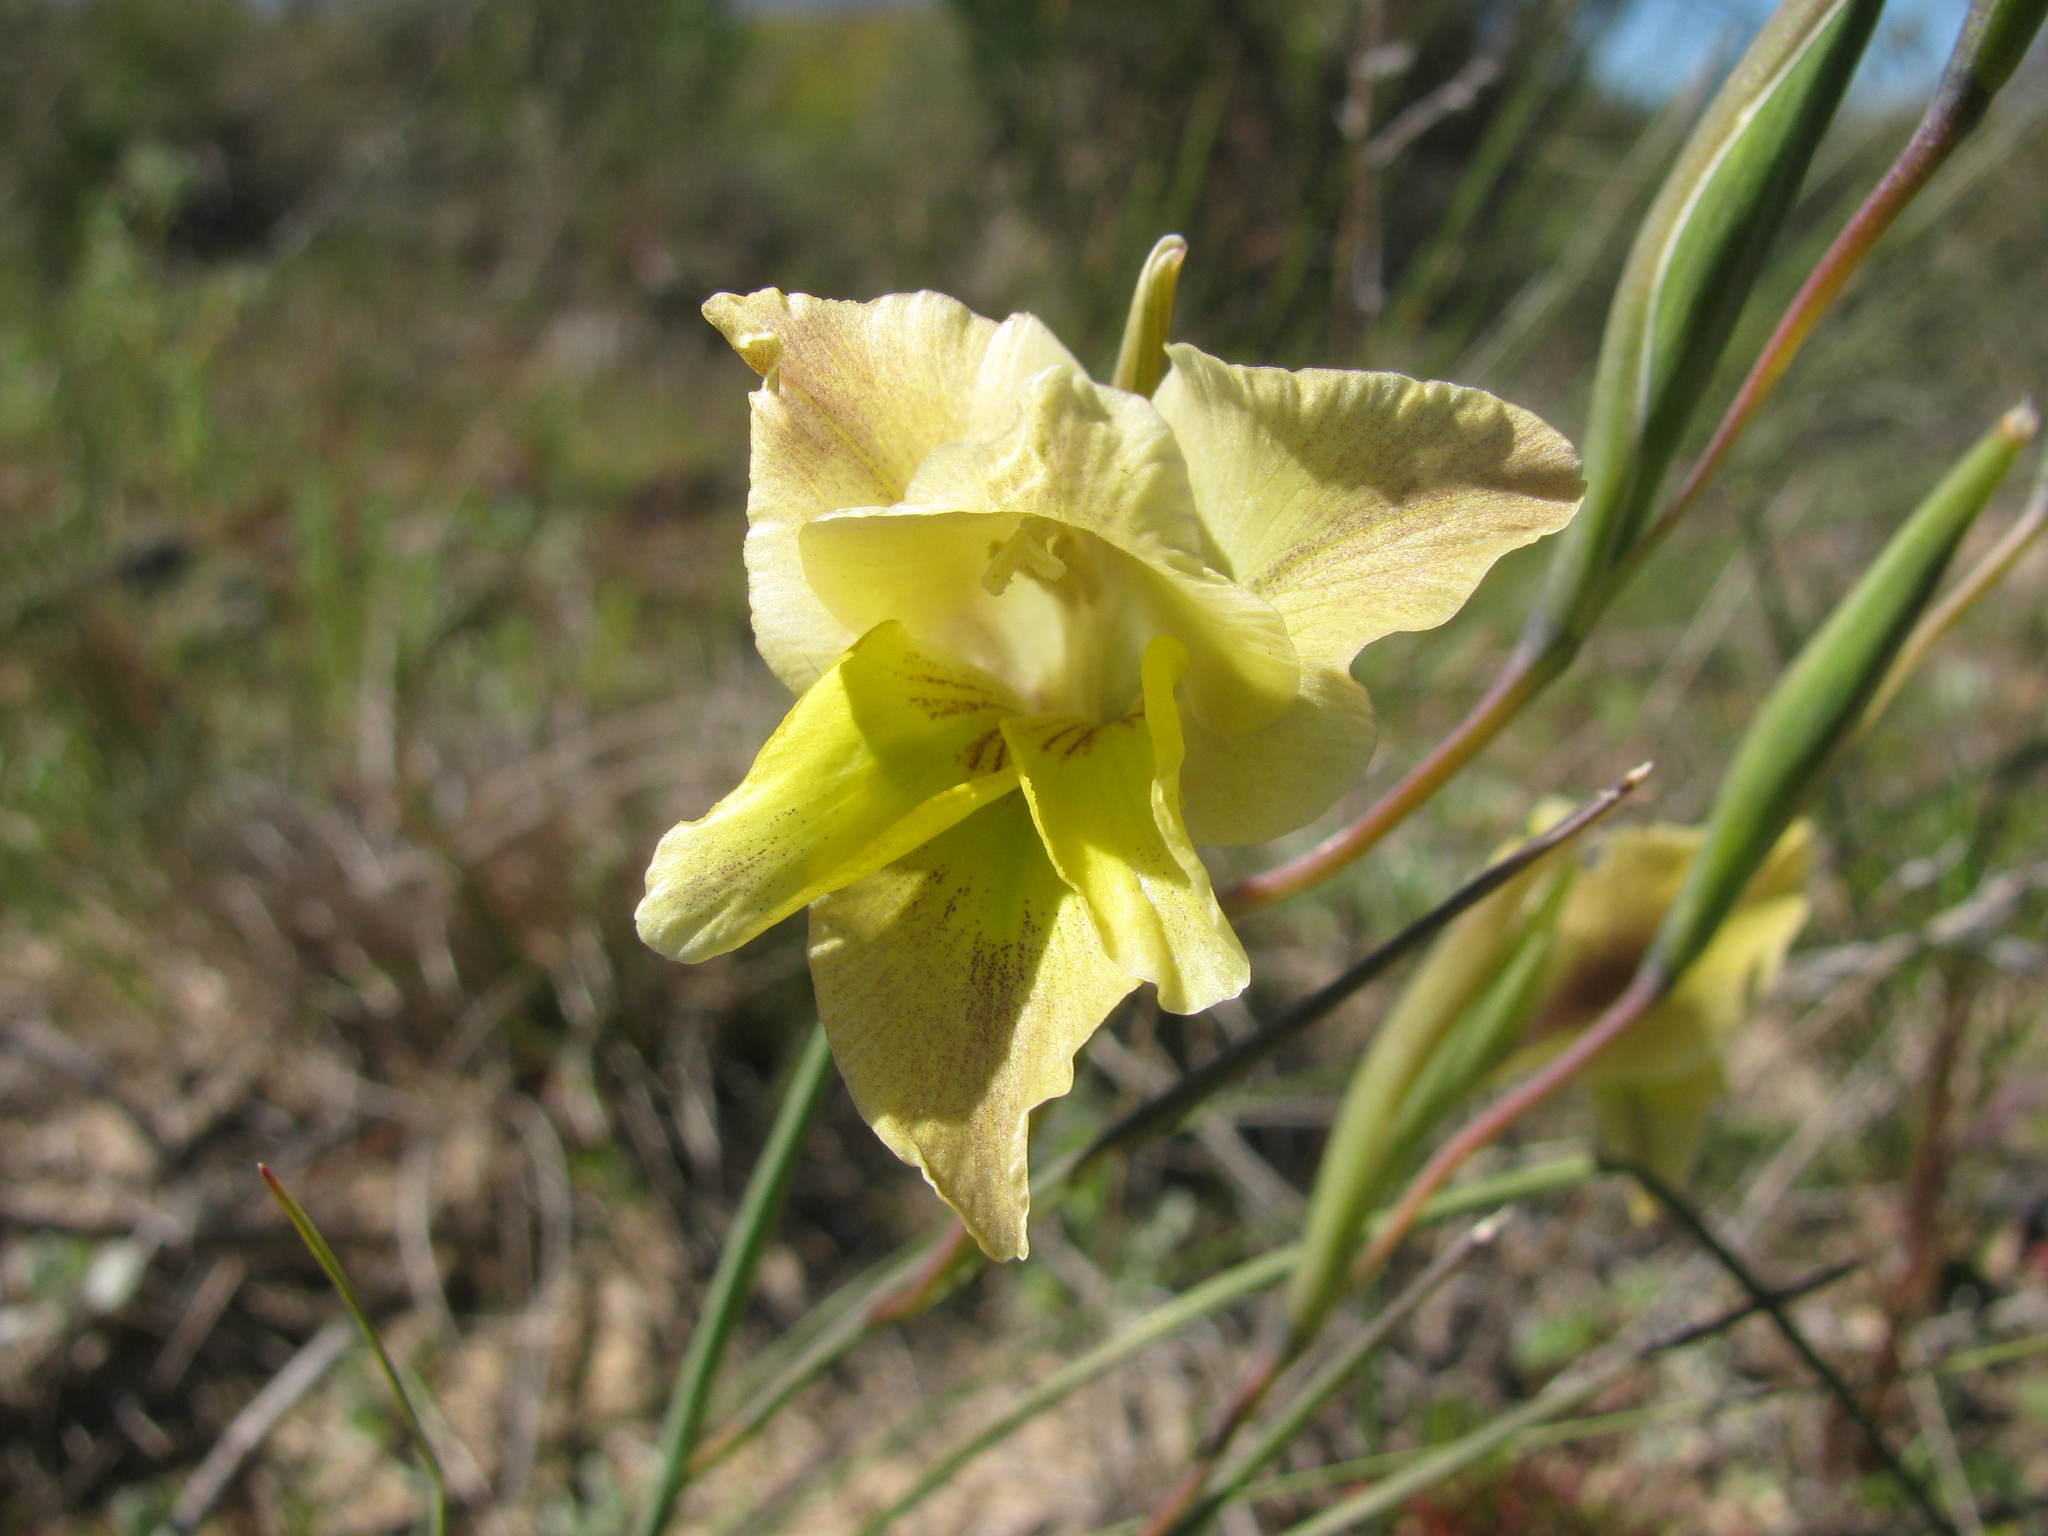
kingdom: Plantae
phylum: Tracheophyta
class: Liliopsida
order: Asparagales
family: Iridaceae
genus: Gladiolus
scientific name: Gladiolus carinatus
